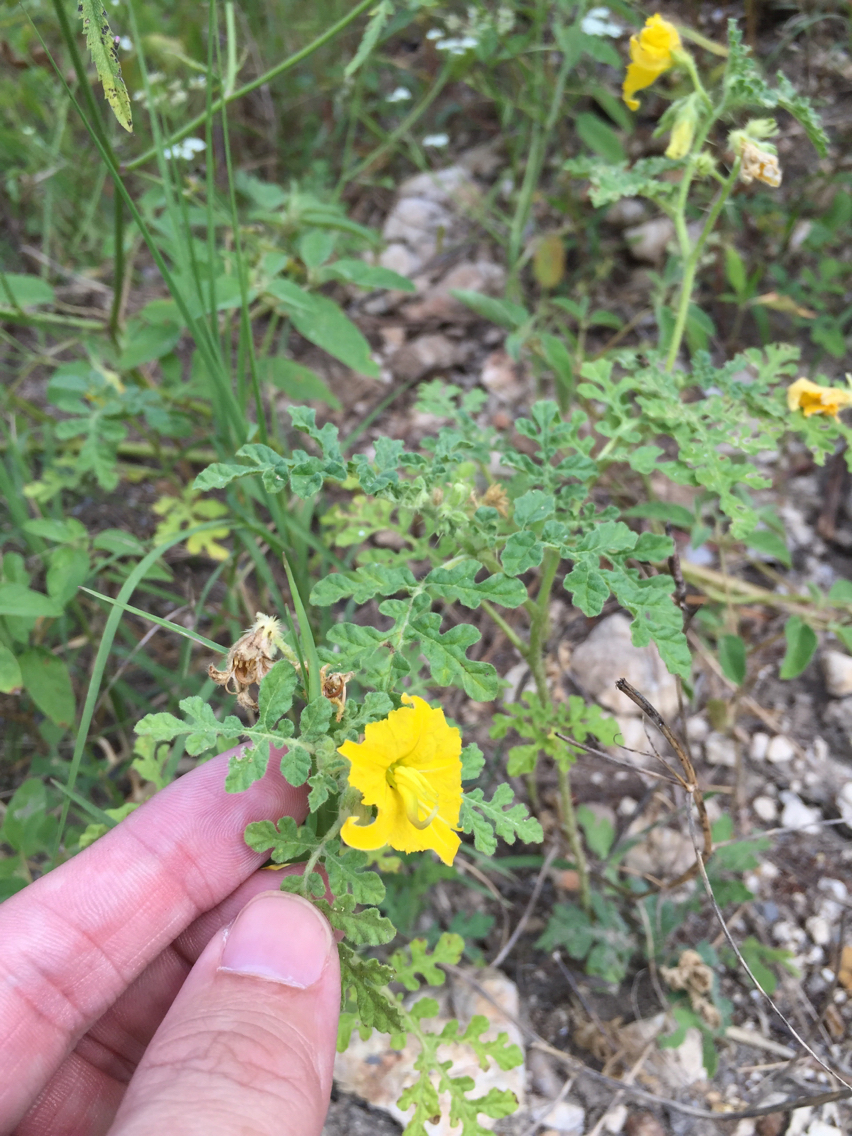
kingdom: Plantae
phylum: Tracheophyta
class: Magnoliopsida
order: Solanales
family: Solanaceae
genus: Solanum
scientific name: Solanum angustifolium
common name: Buffalobur nightshade
